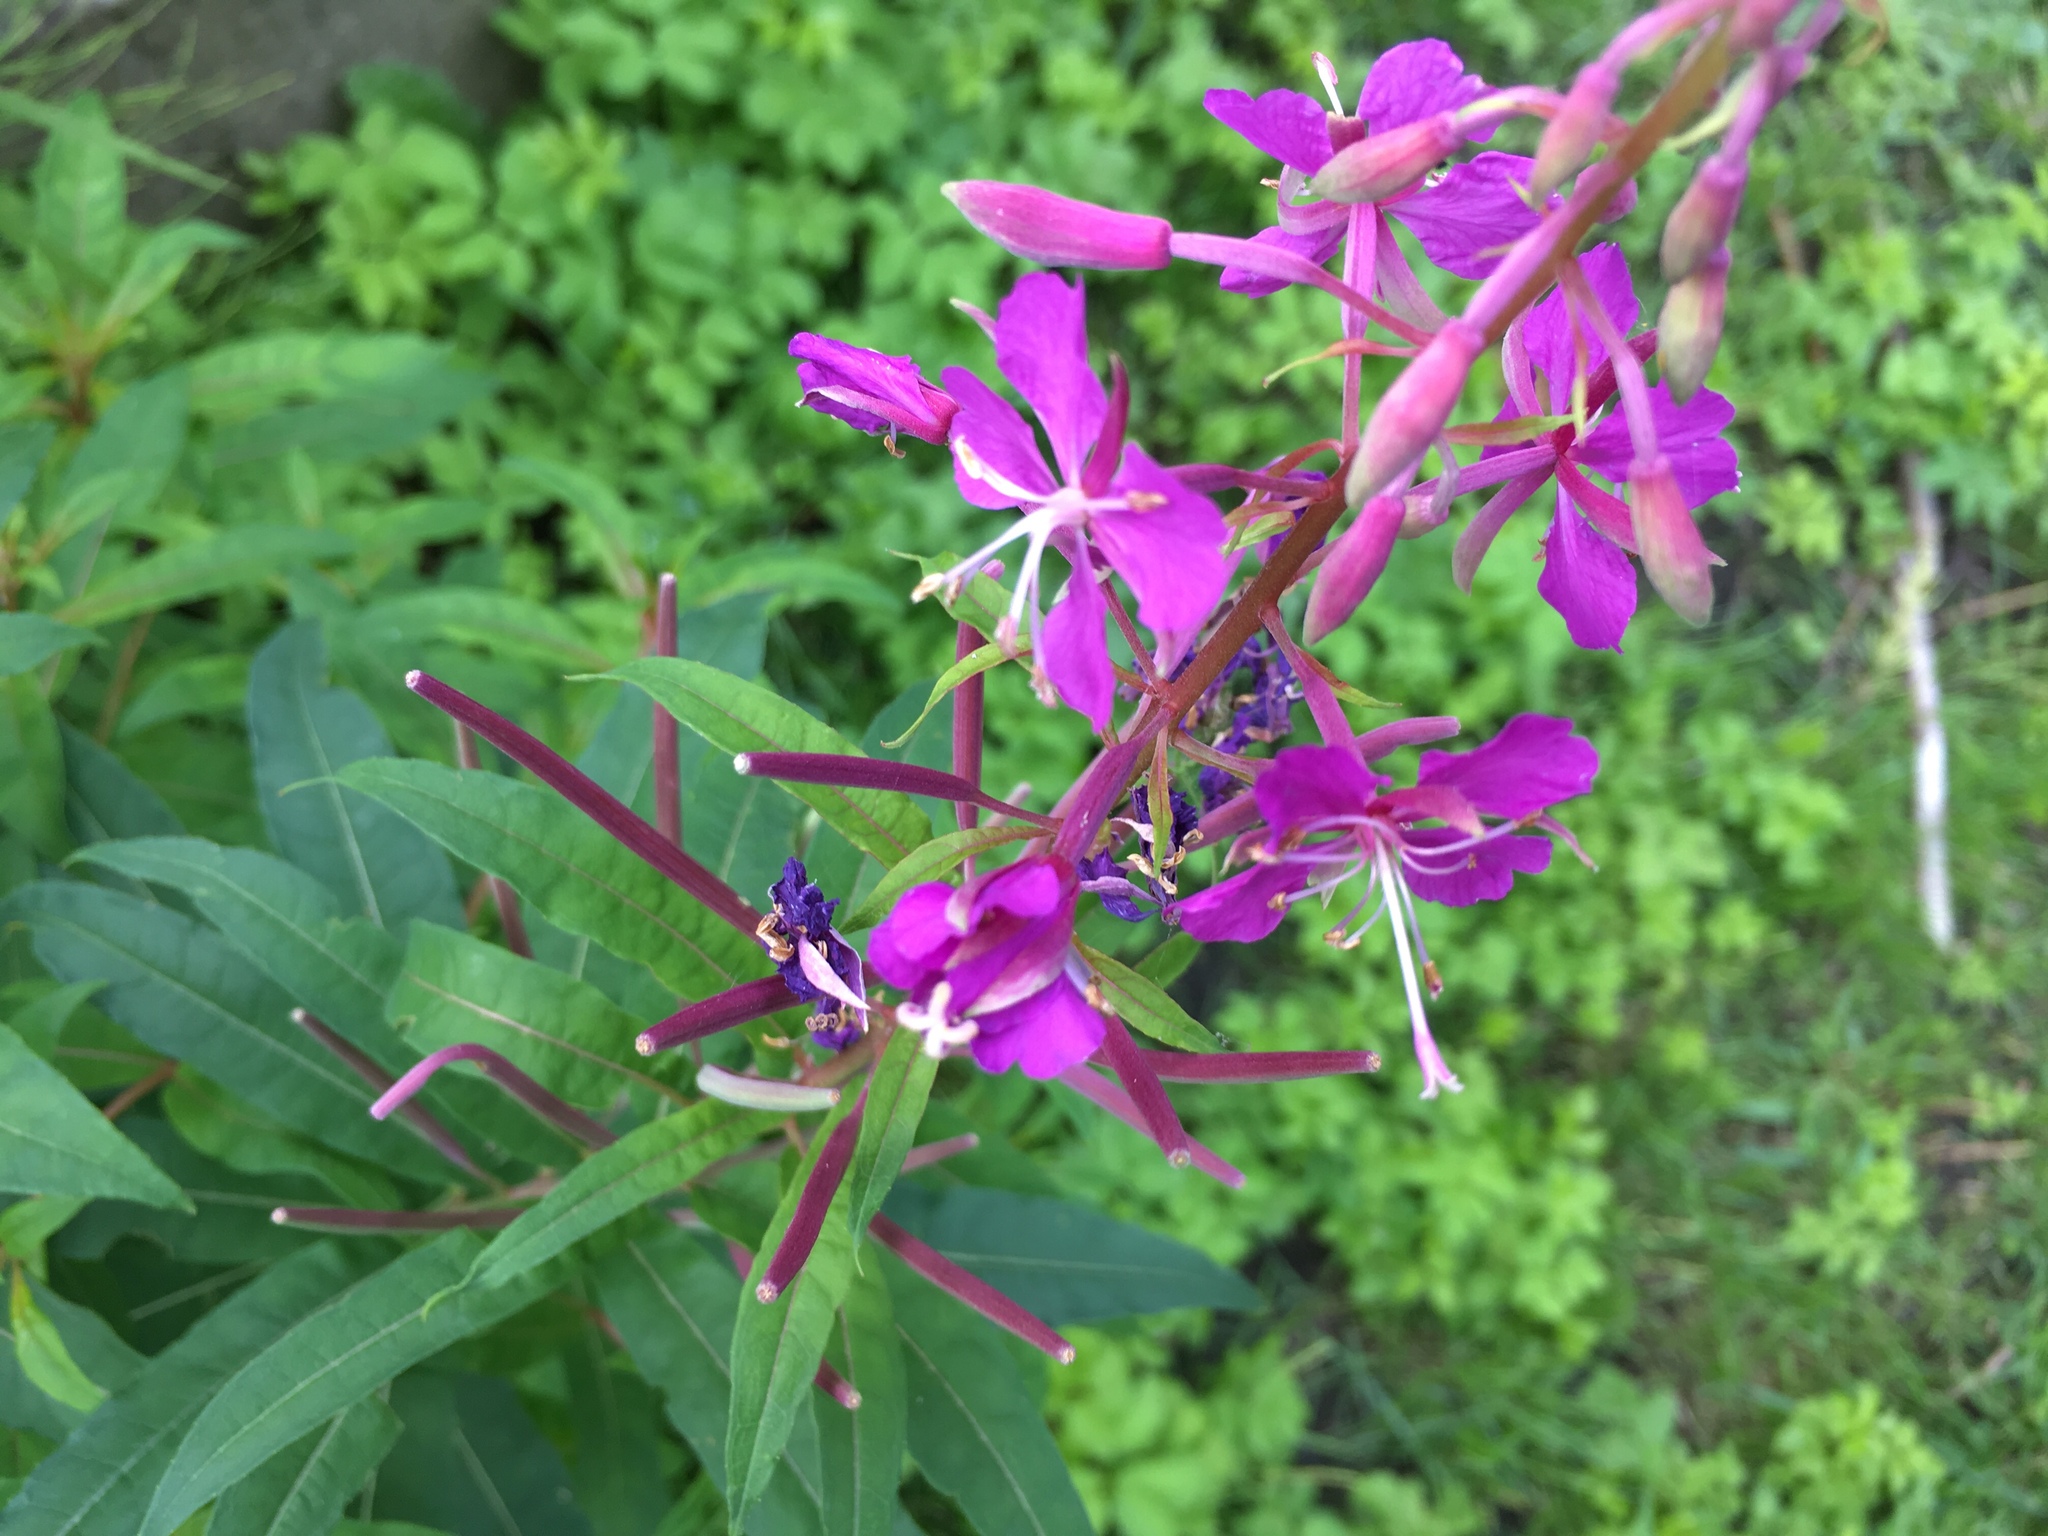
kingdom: Plantae
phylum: Tracheophyta
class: Magnoliopsida
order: Myrtales
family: Onagraceae
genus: Chamaenerion
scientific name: Chamaenerion angustifolium
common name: Fireweed
